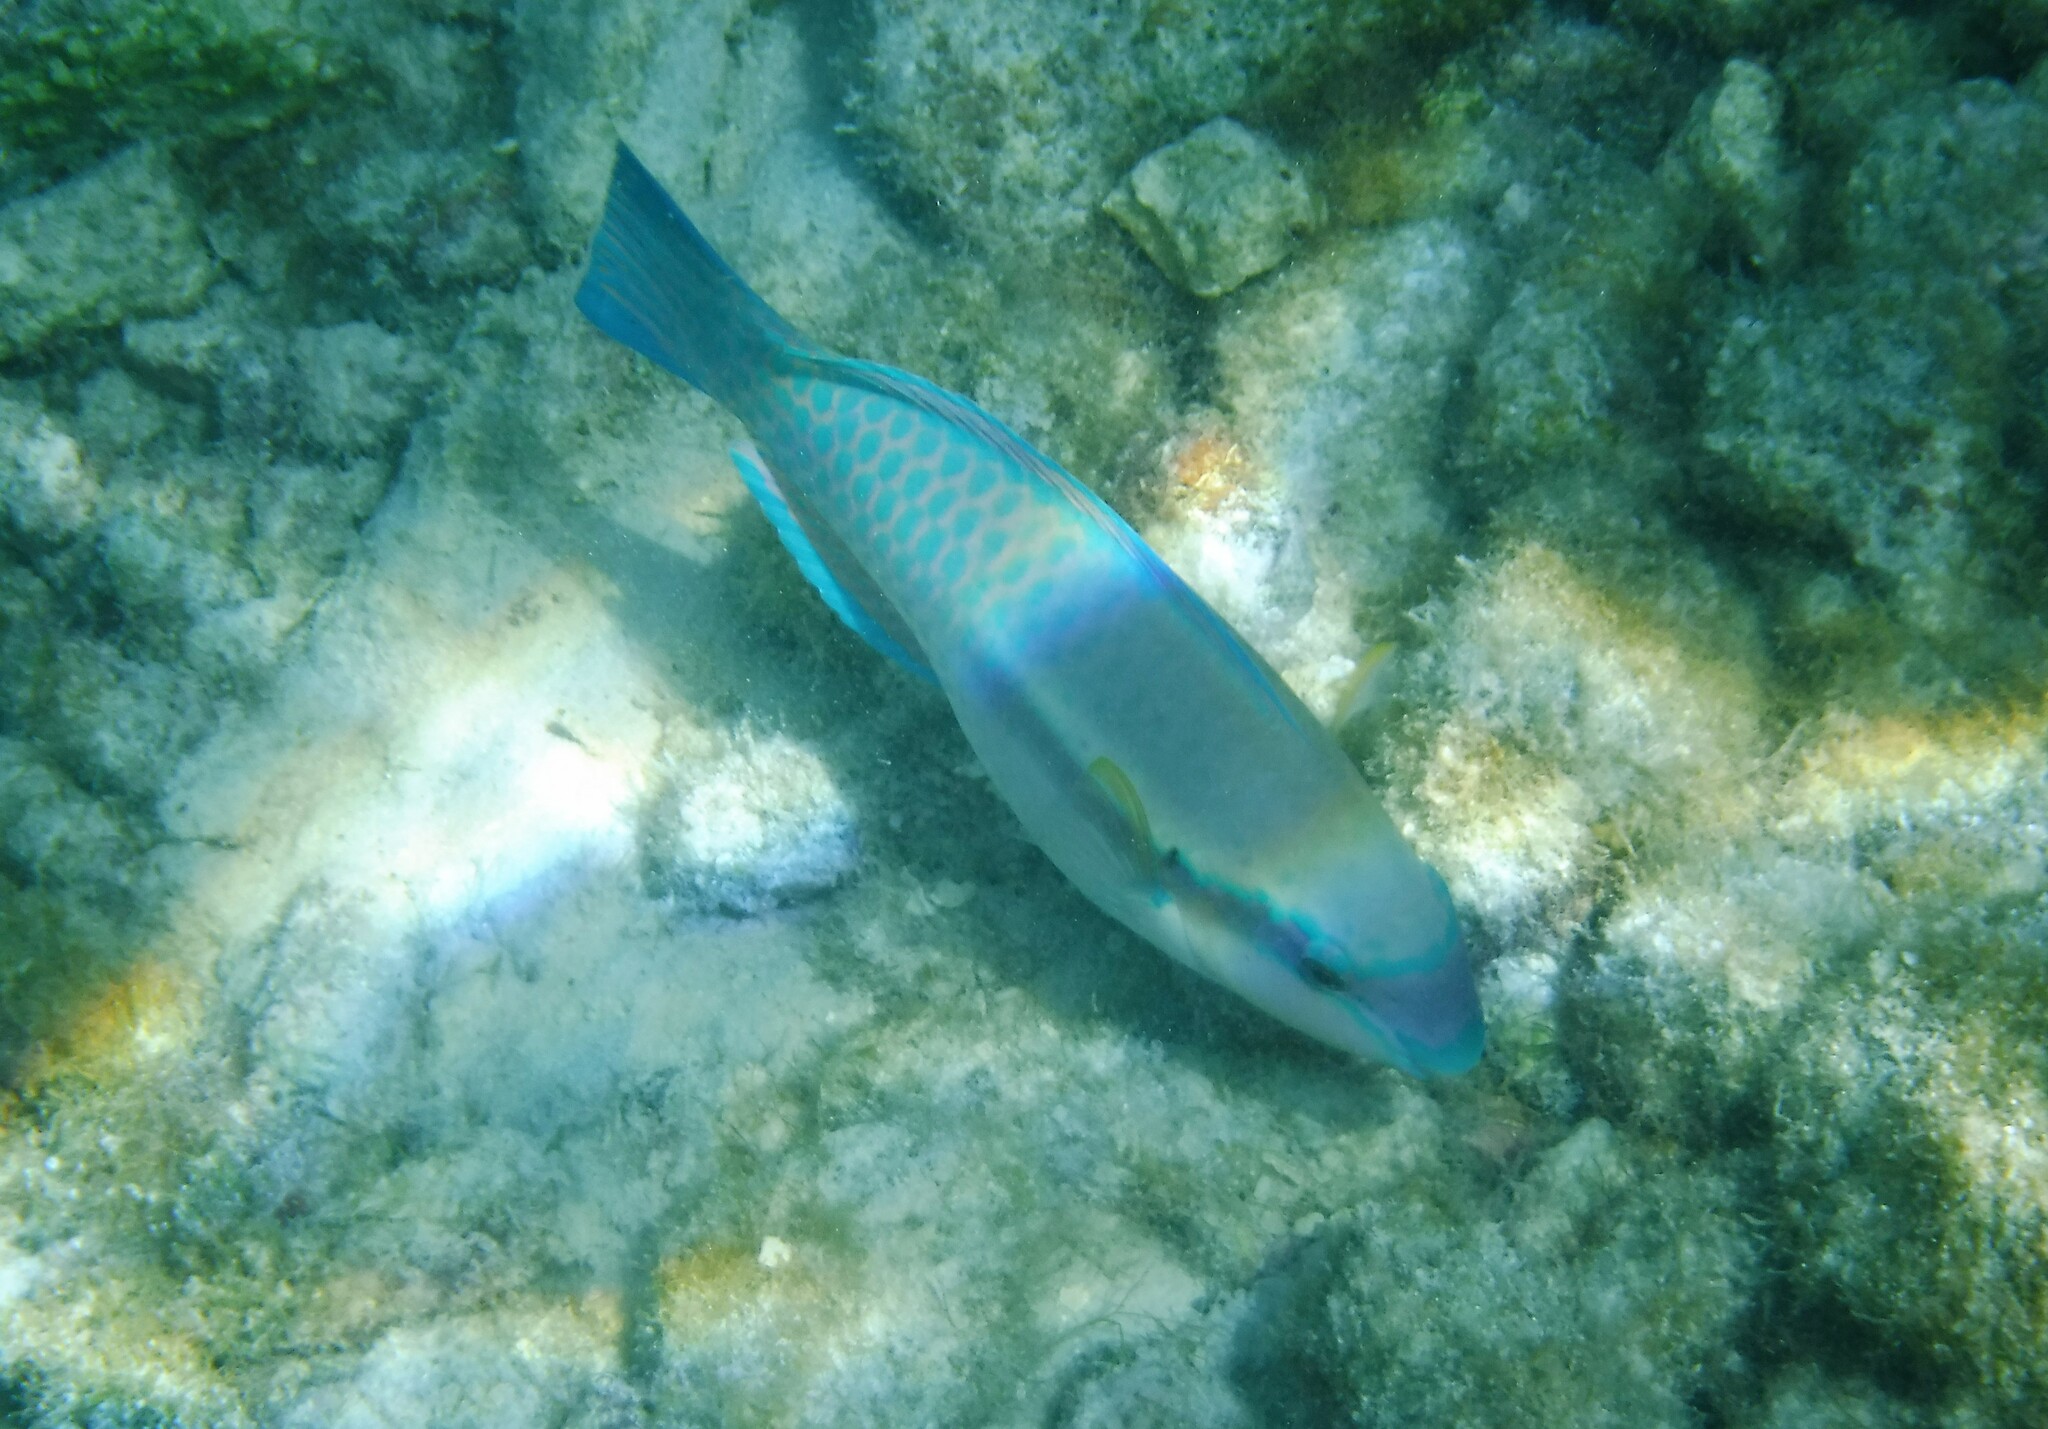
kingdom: Animalia
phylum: Chordata
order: Perciformes
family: Scaridae
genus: Scarus
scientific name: Scarus iseri
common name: Striped parrotfish
